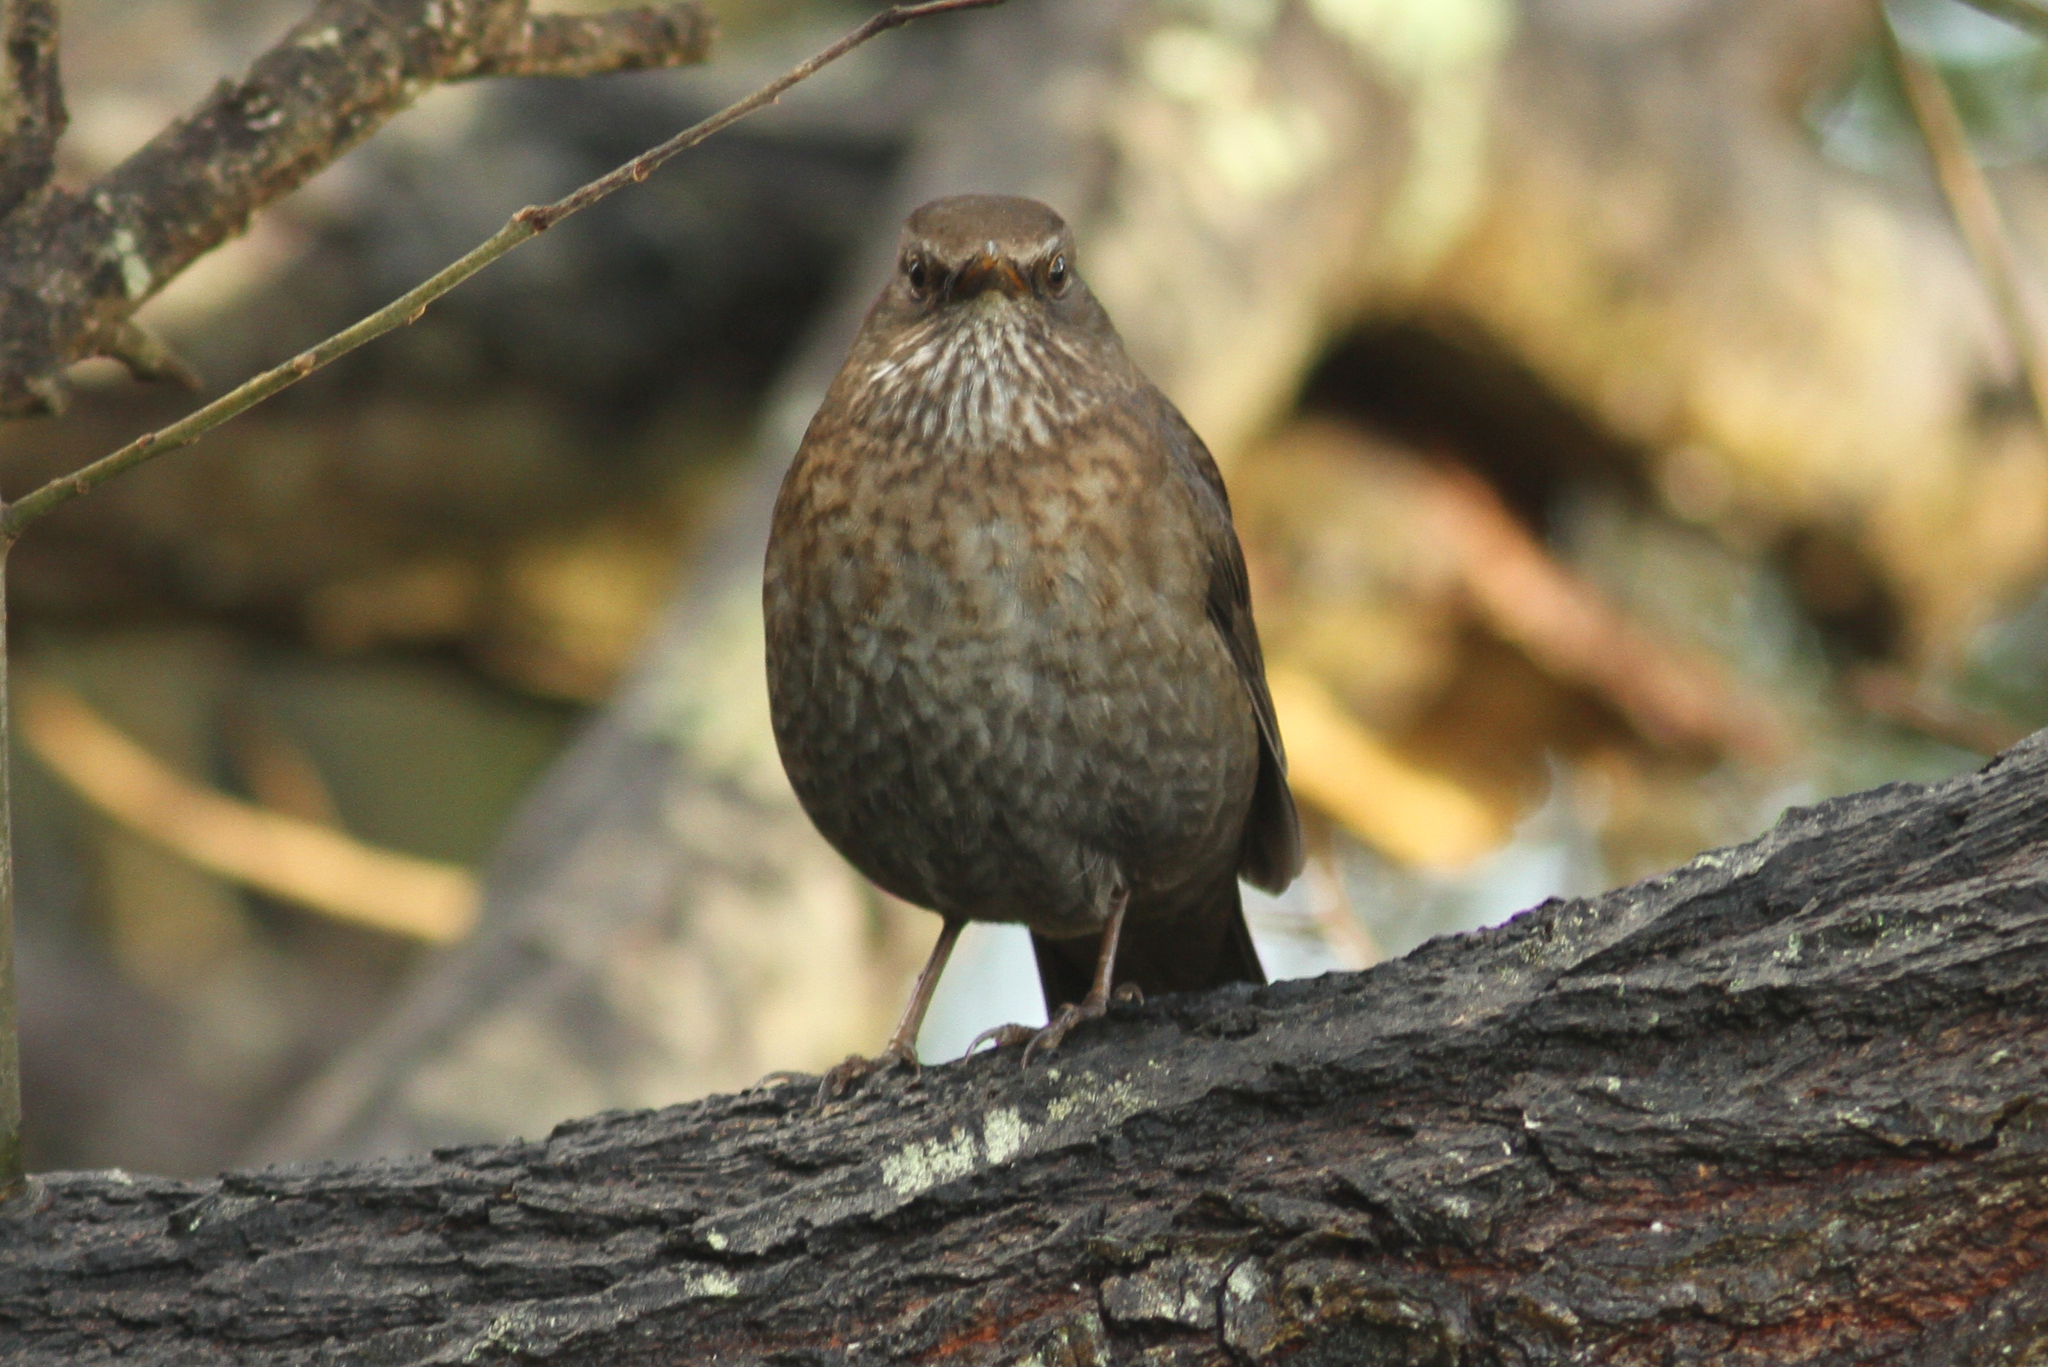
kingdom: Animalia
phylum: Chordata
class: Aves
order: Passeriformes
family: Turdidae
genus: Turdus
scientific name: Turdus merula
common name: Common blackbird
